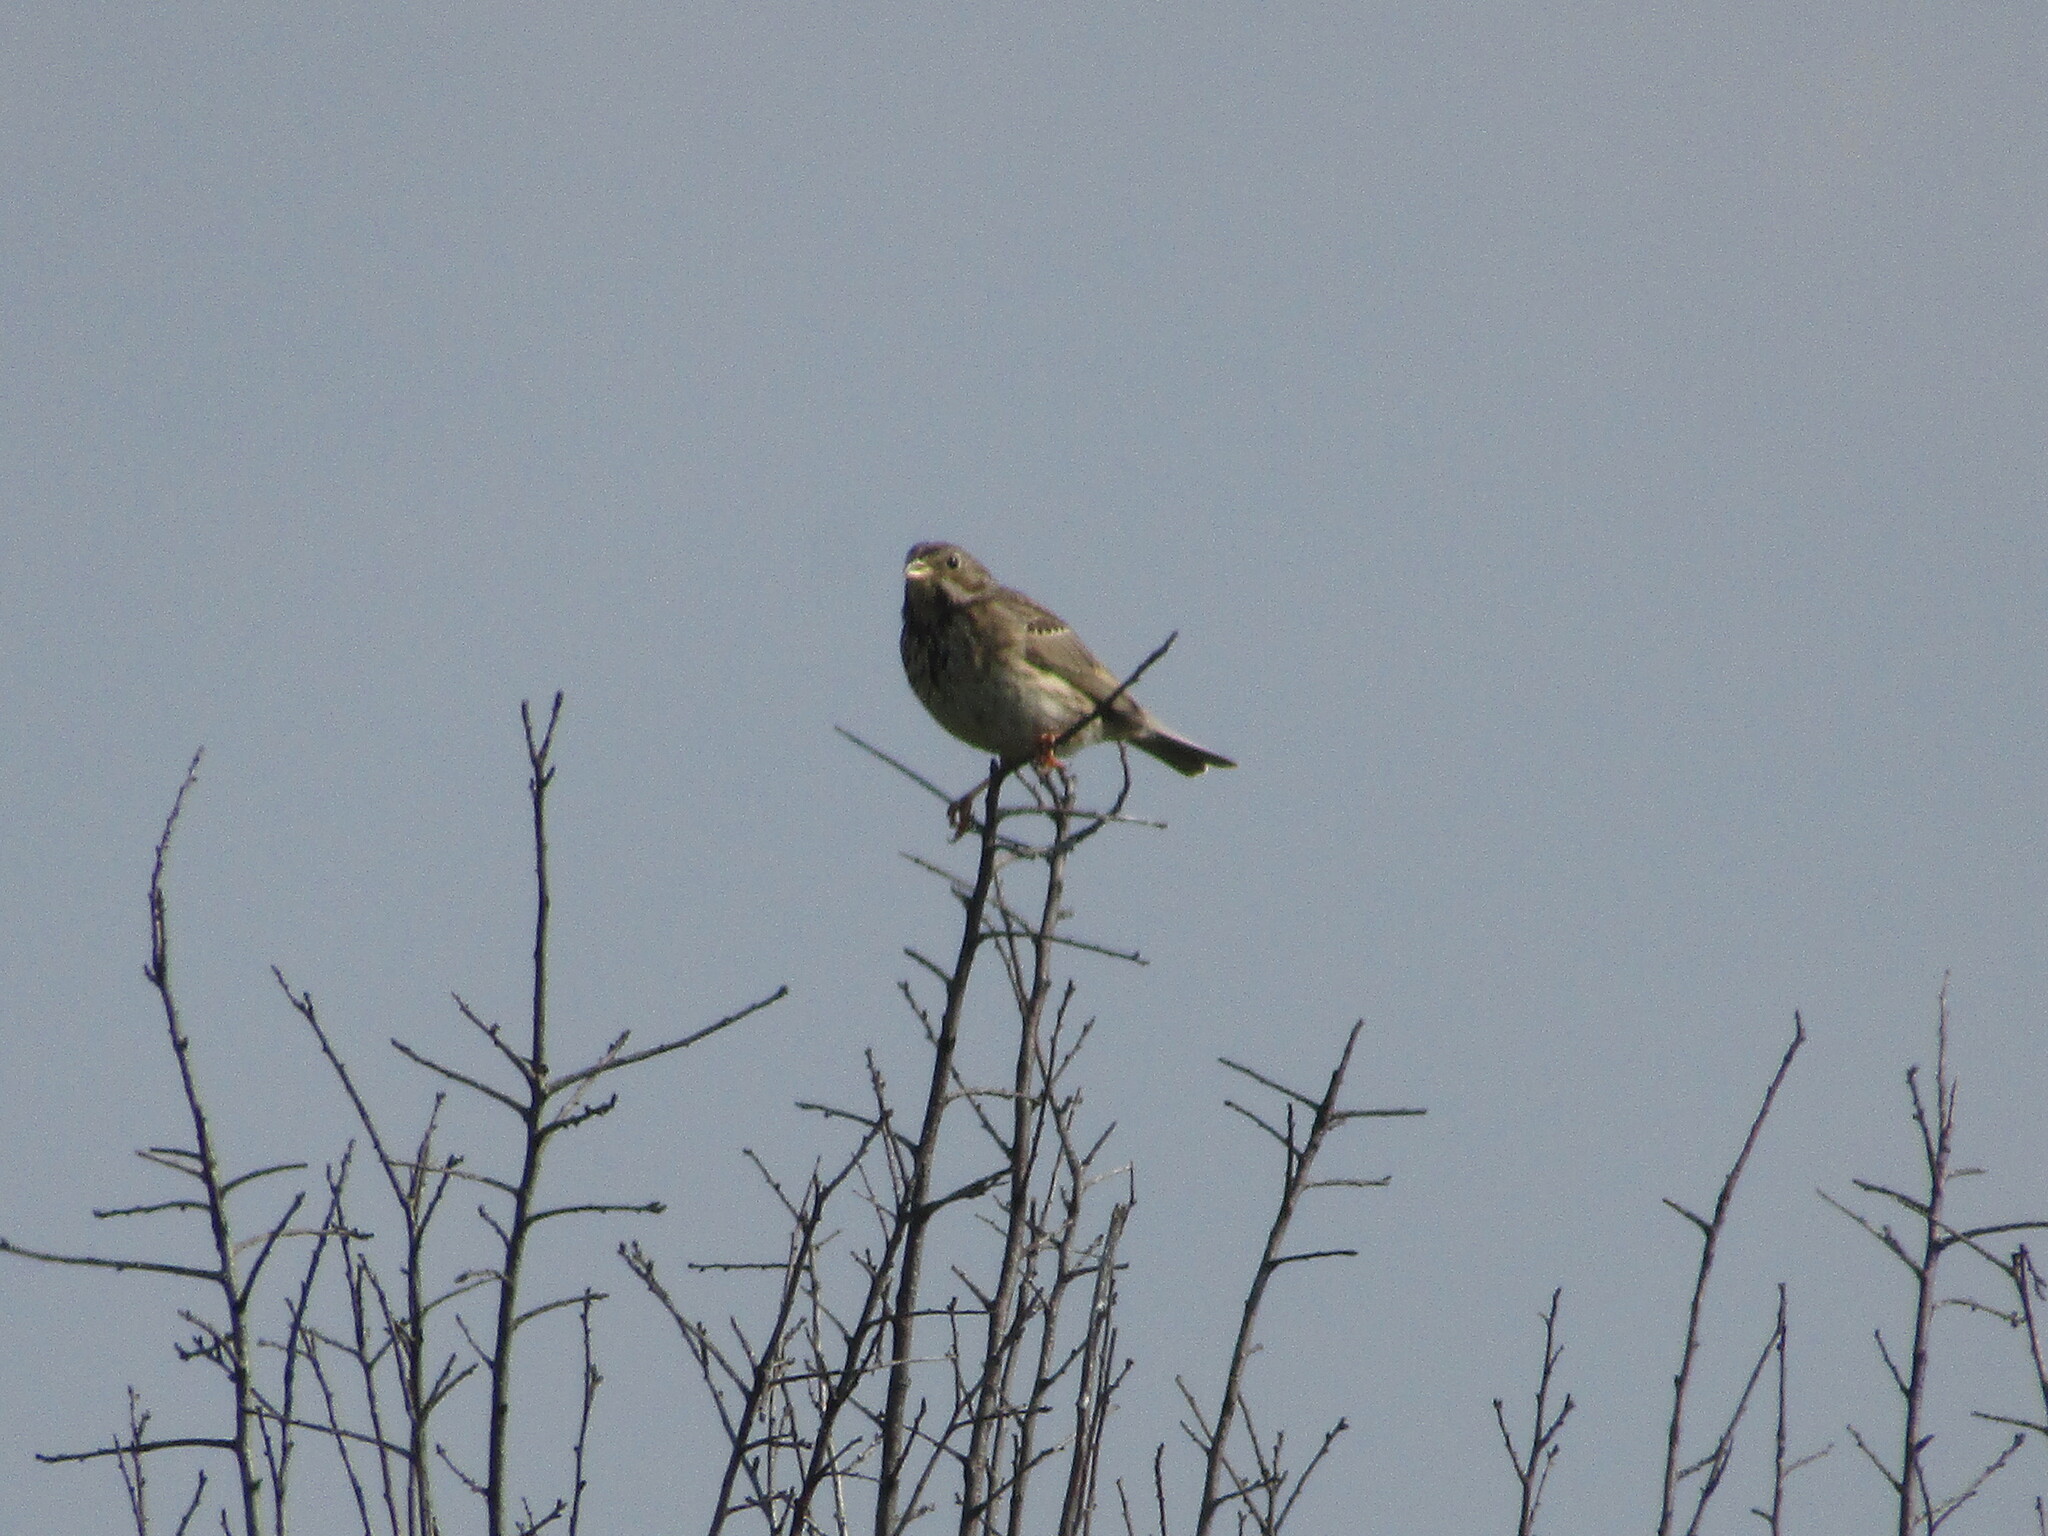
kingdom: Animalia
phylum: Chordata
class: Aves
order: Passeriformes
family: Emberizidae
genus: Emberiza
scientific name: Emberiza calandra
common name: Corn bunting
